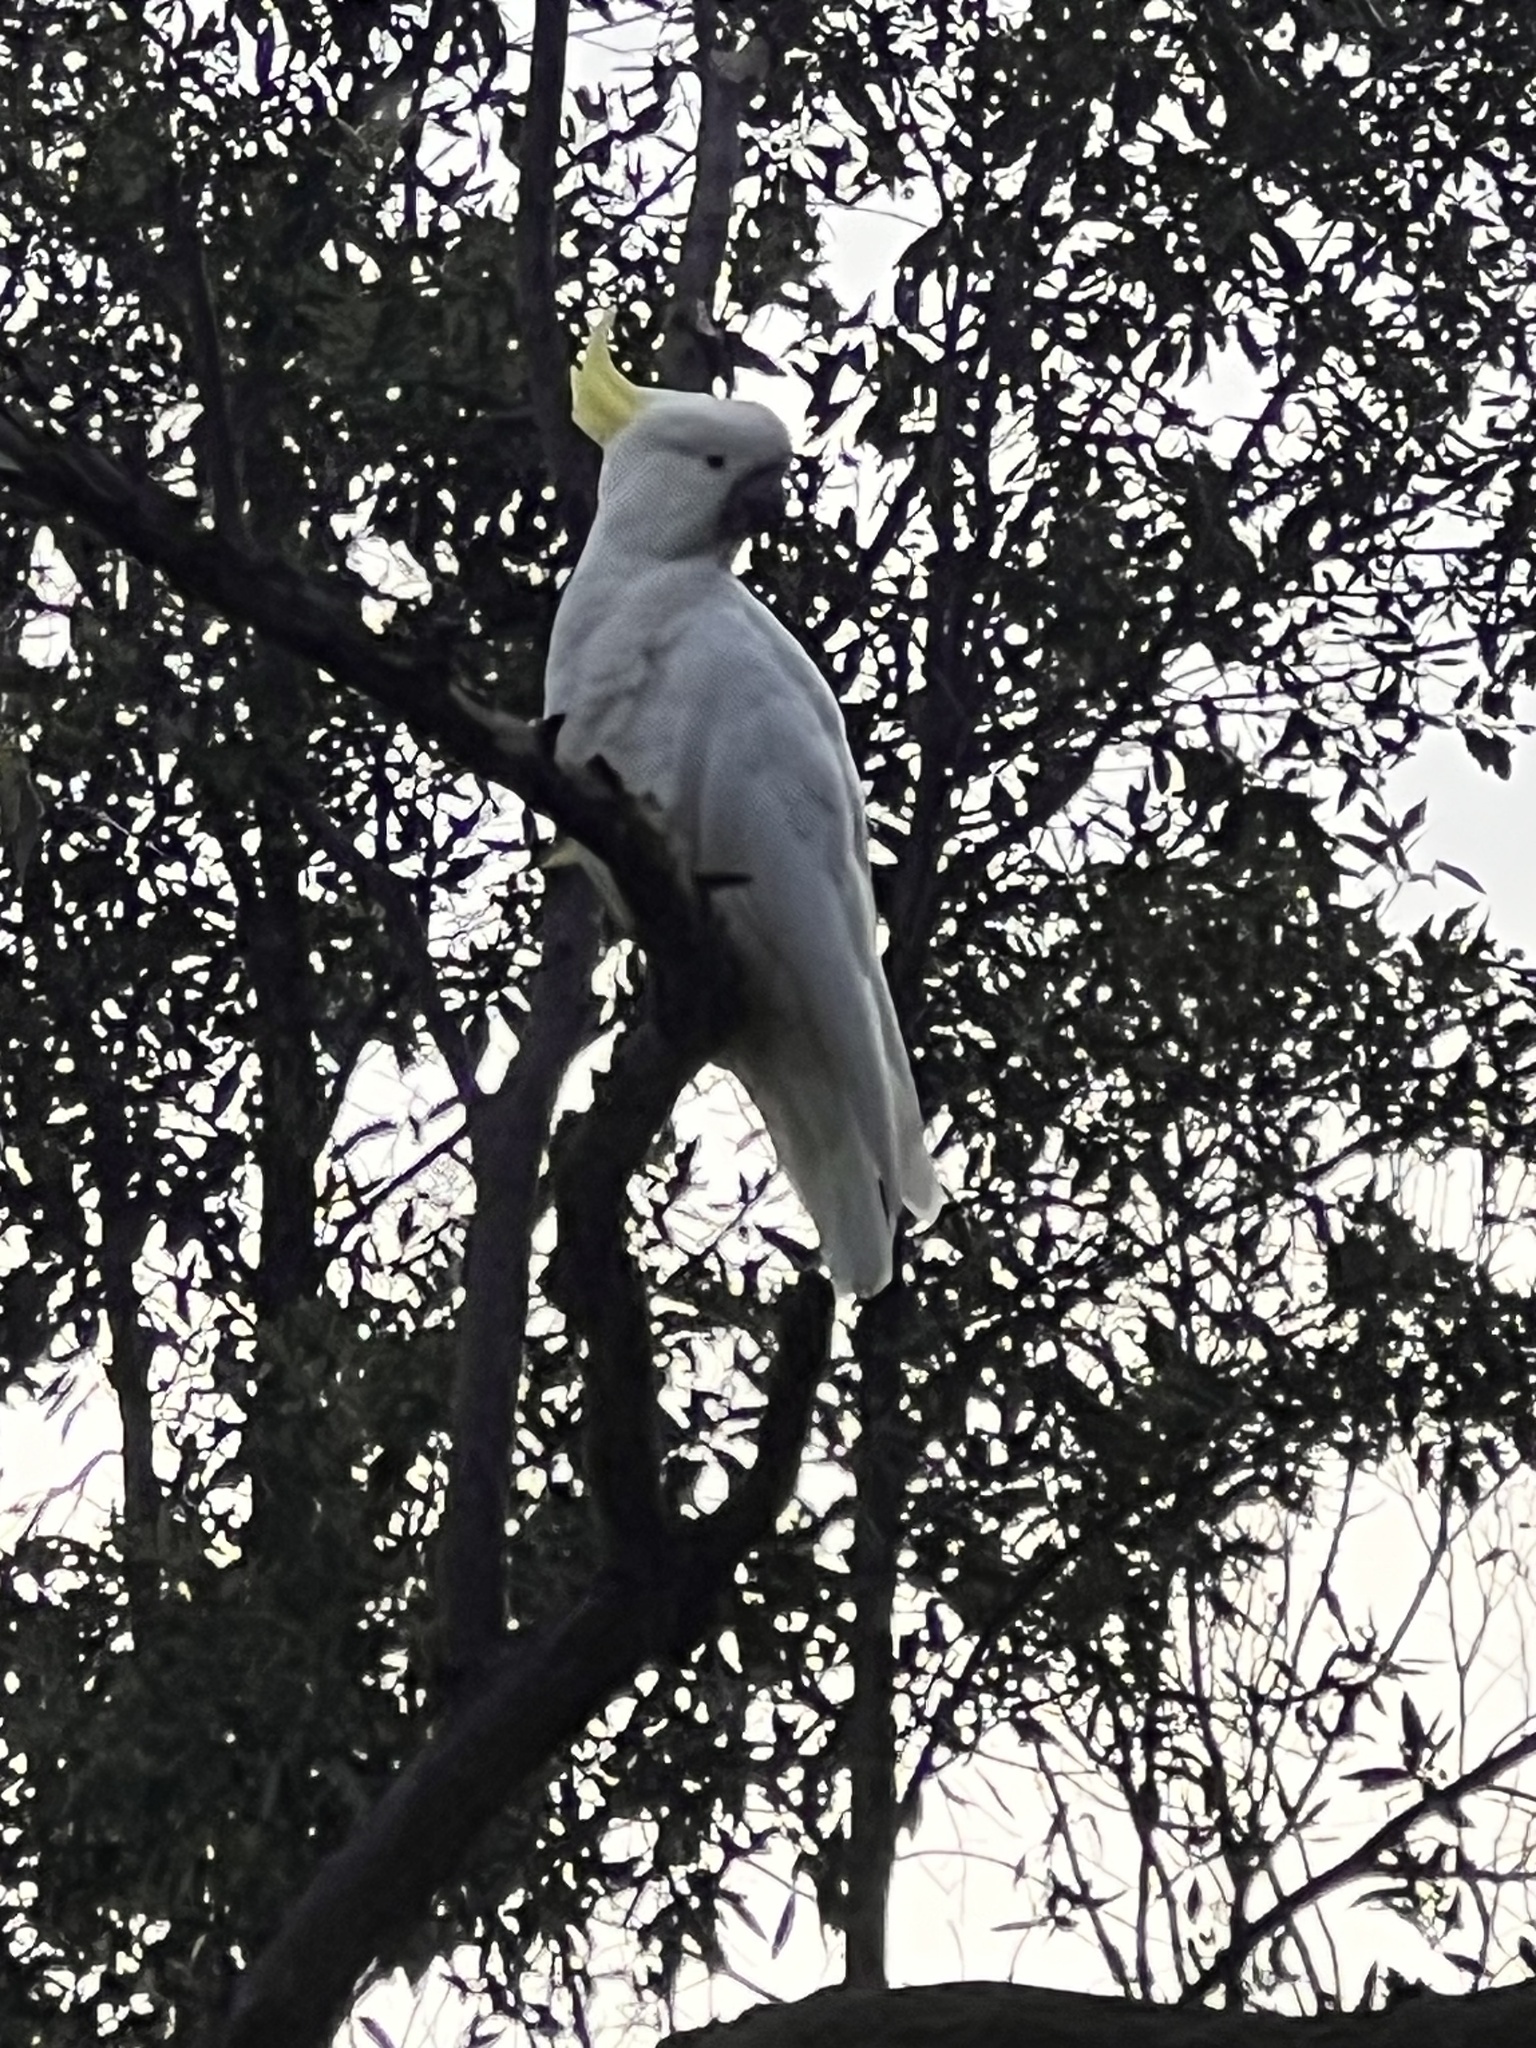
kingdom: Animalia
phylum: Chordata
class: Aves
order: Psittaciformes
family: Psittacidae
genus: Cacatua
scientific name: Cacatua galerita
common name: Sulphur-crested cockatoo
